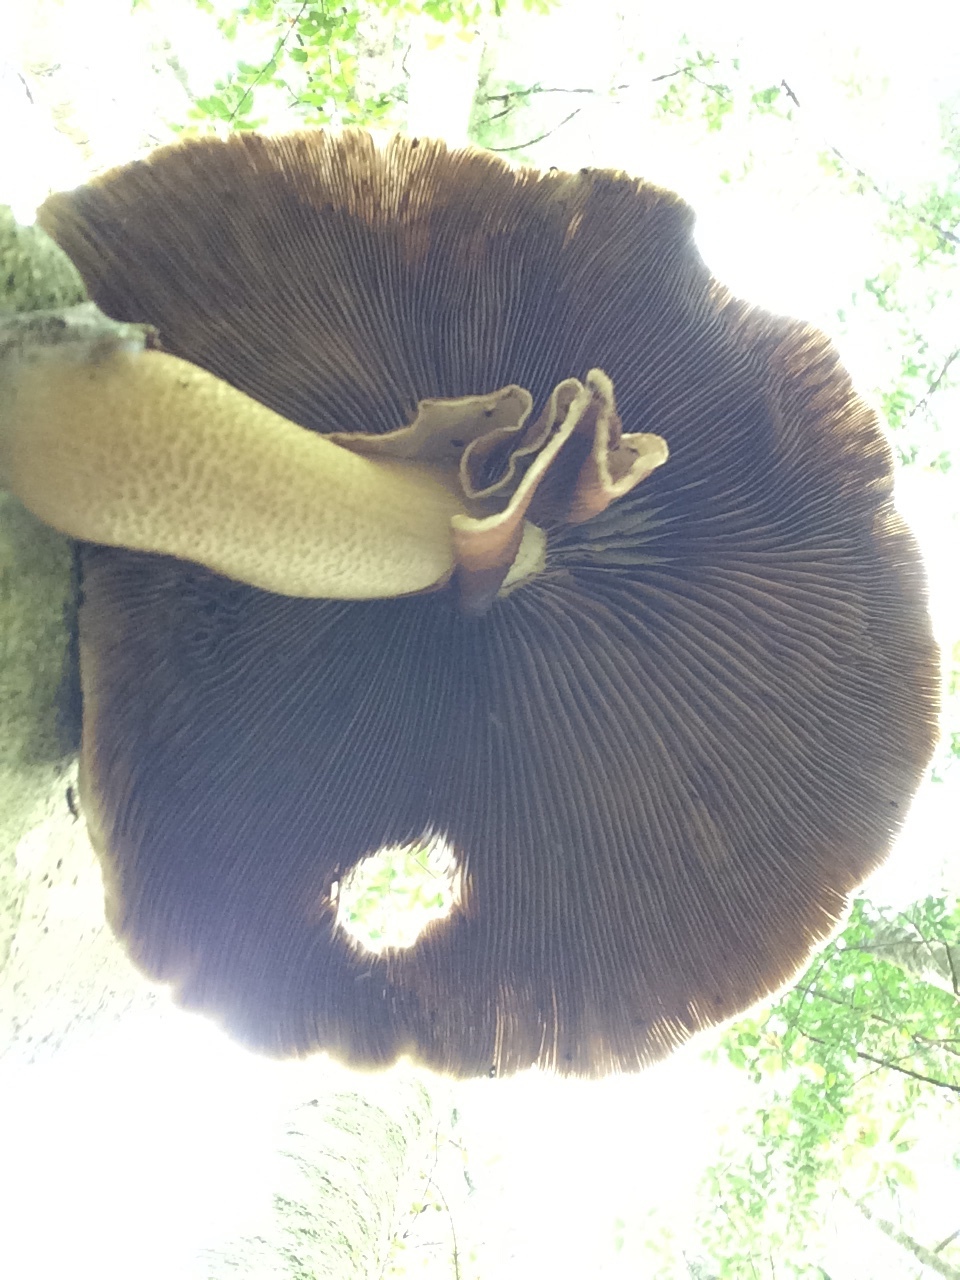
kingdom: Fungi
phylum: Basidiomycota
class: Agaricomycetes
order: Agaricales
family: Tubariaceae
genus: Cyclocybe
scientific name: Cyclocybe parasitica
